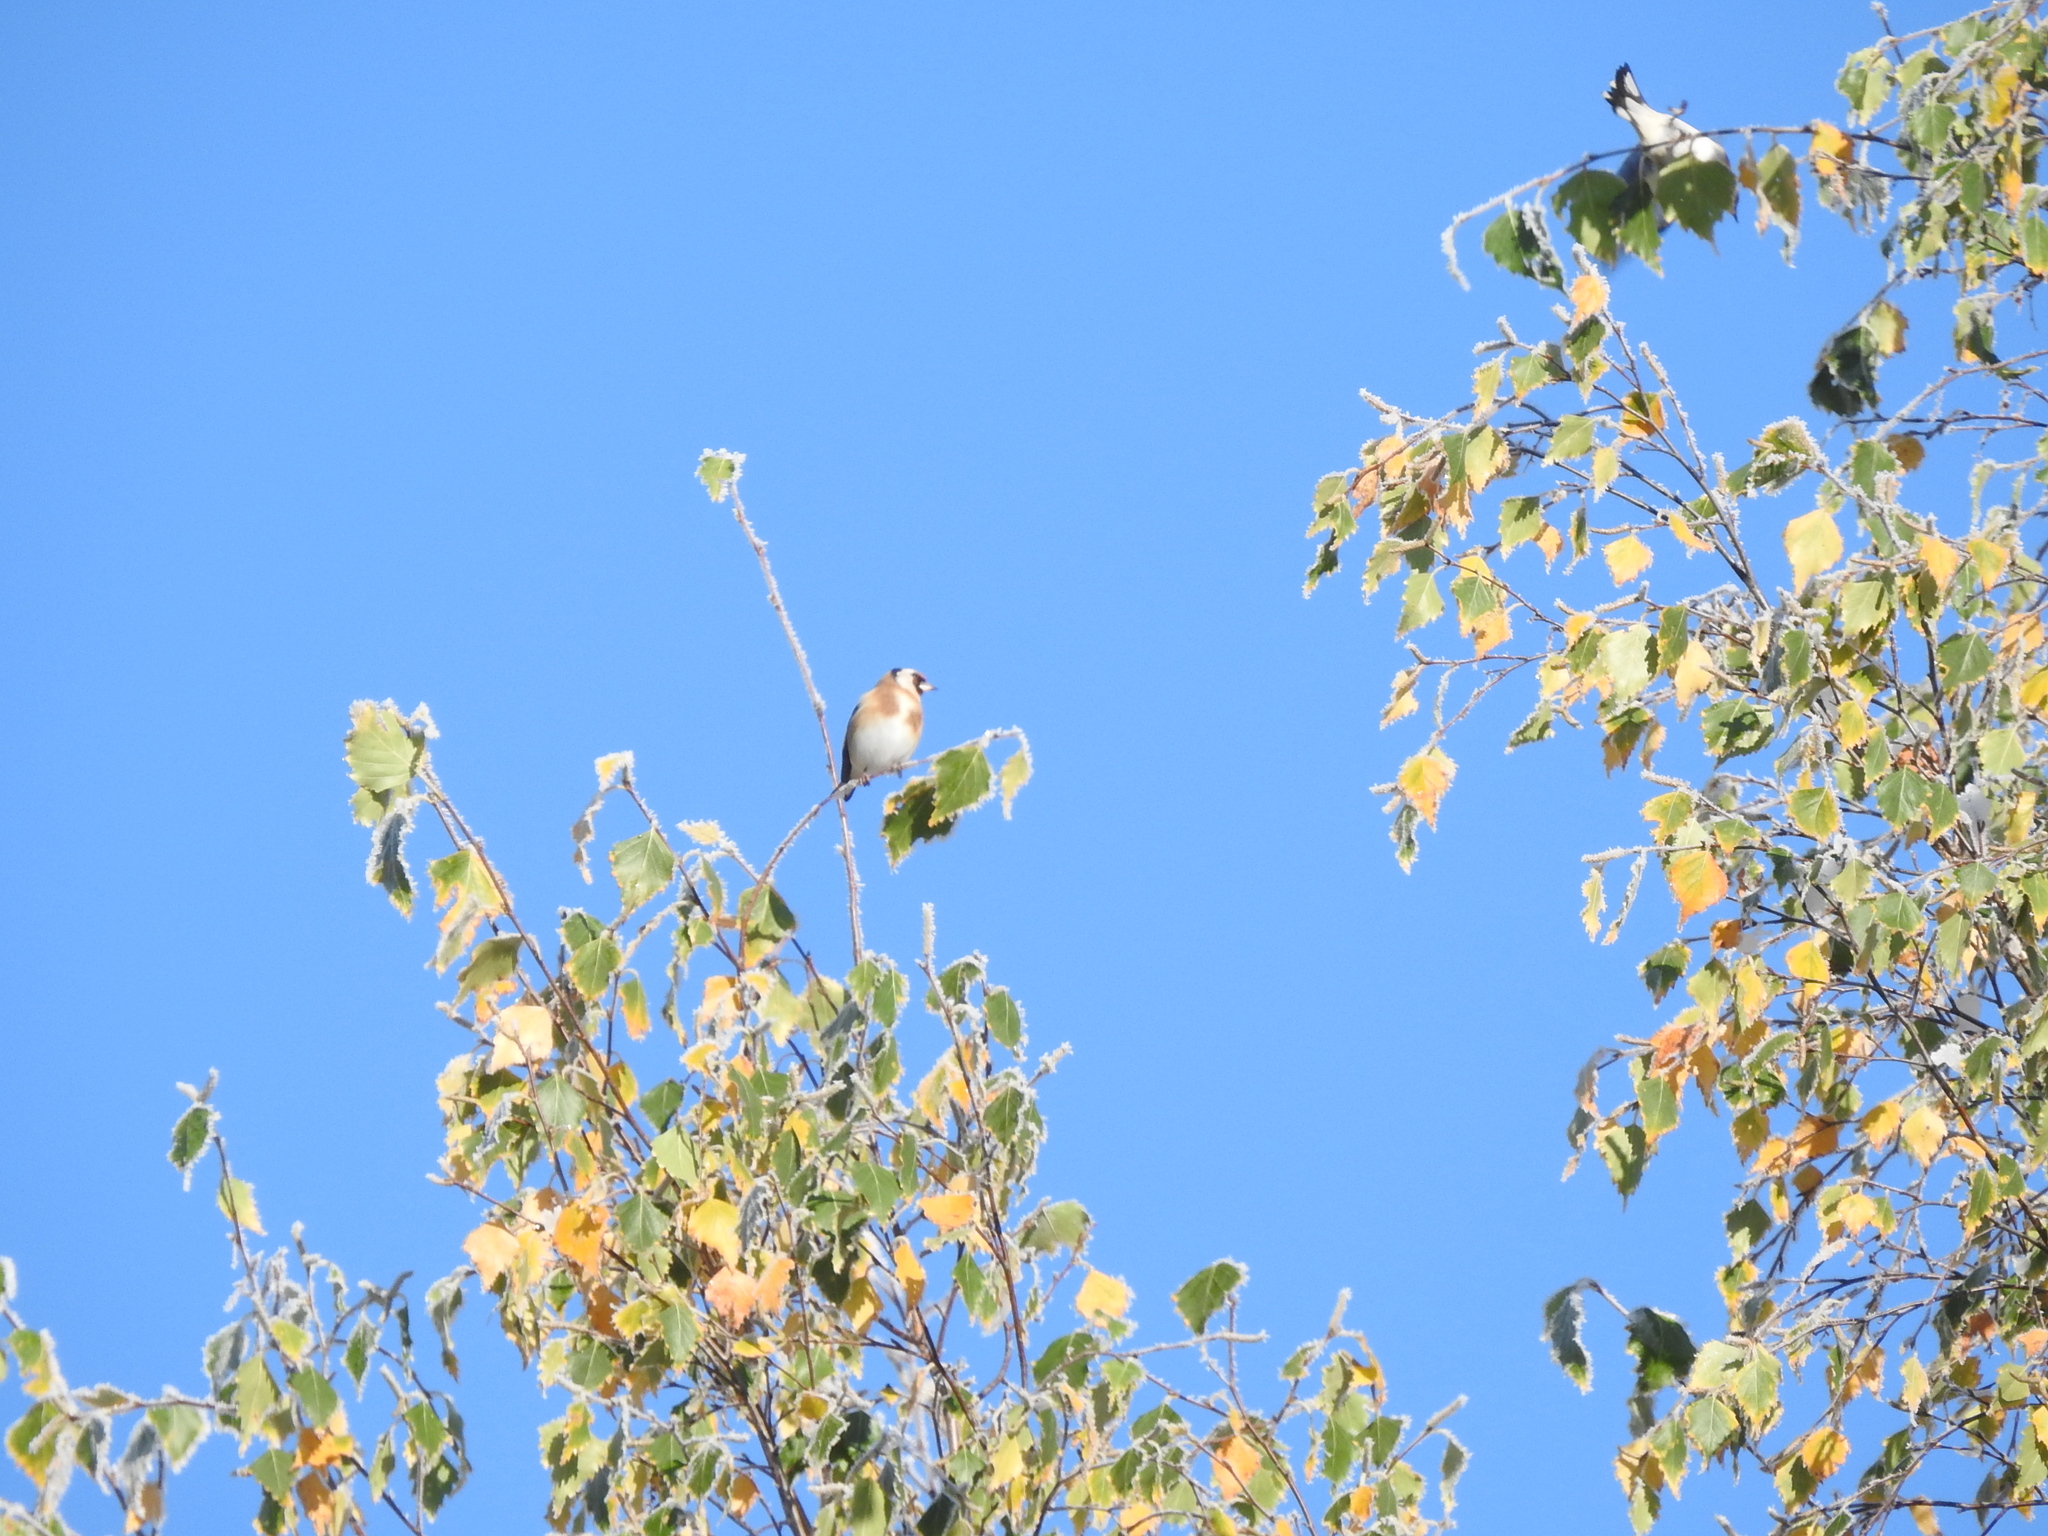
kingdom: Animalia
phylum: Chordata
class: Aves
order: Passeriformes
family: Fringillidae
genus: Carduelis
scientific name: Carduelis carduelis
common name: European goldfinch
